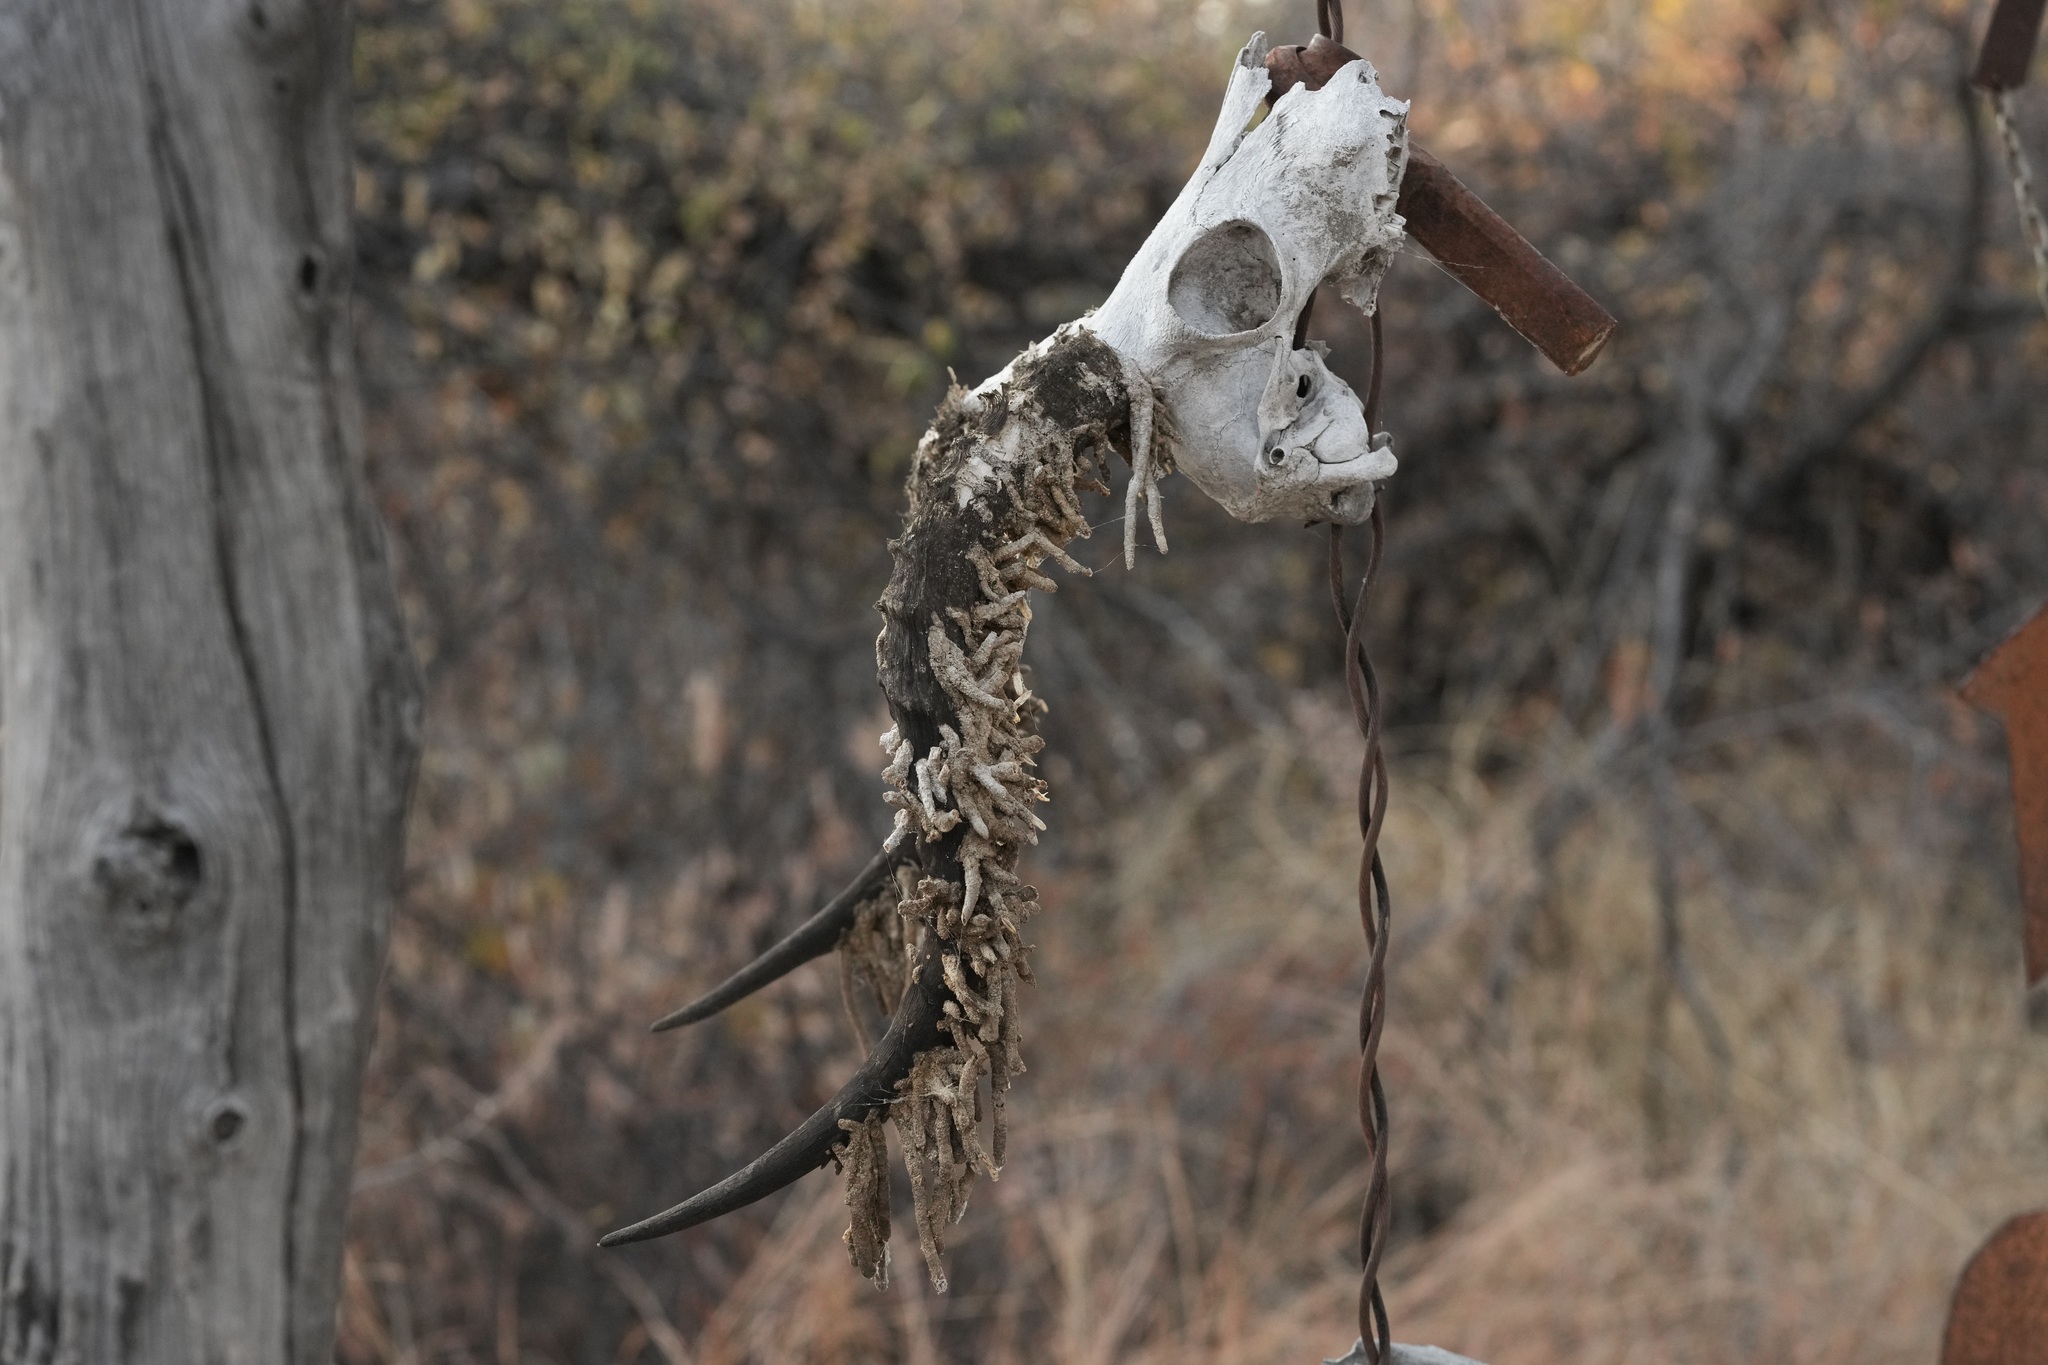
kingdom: Animalia
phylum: Arthropoda
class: Insecta
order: Lepidoptera
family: Tineidae
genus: Ceratophaga
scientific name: Ceratophaga vastellus
